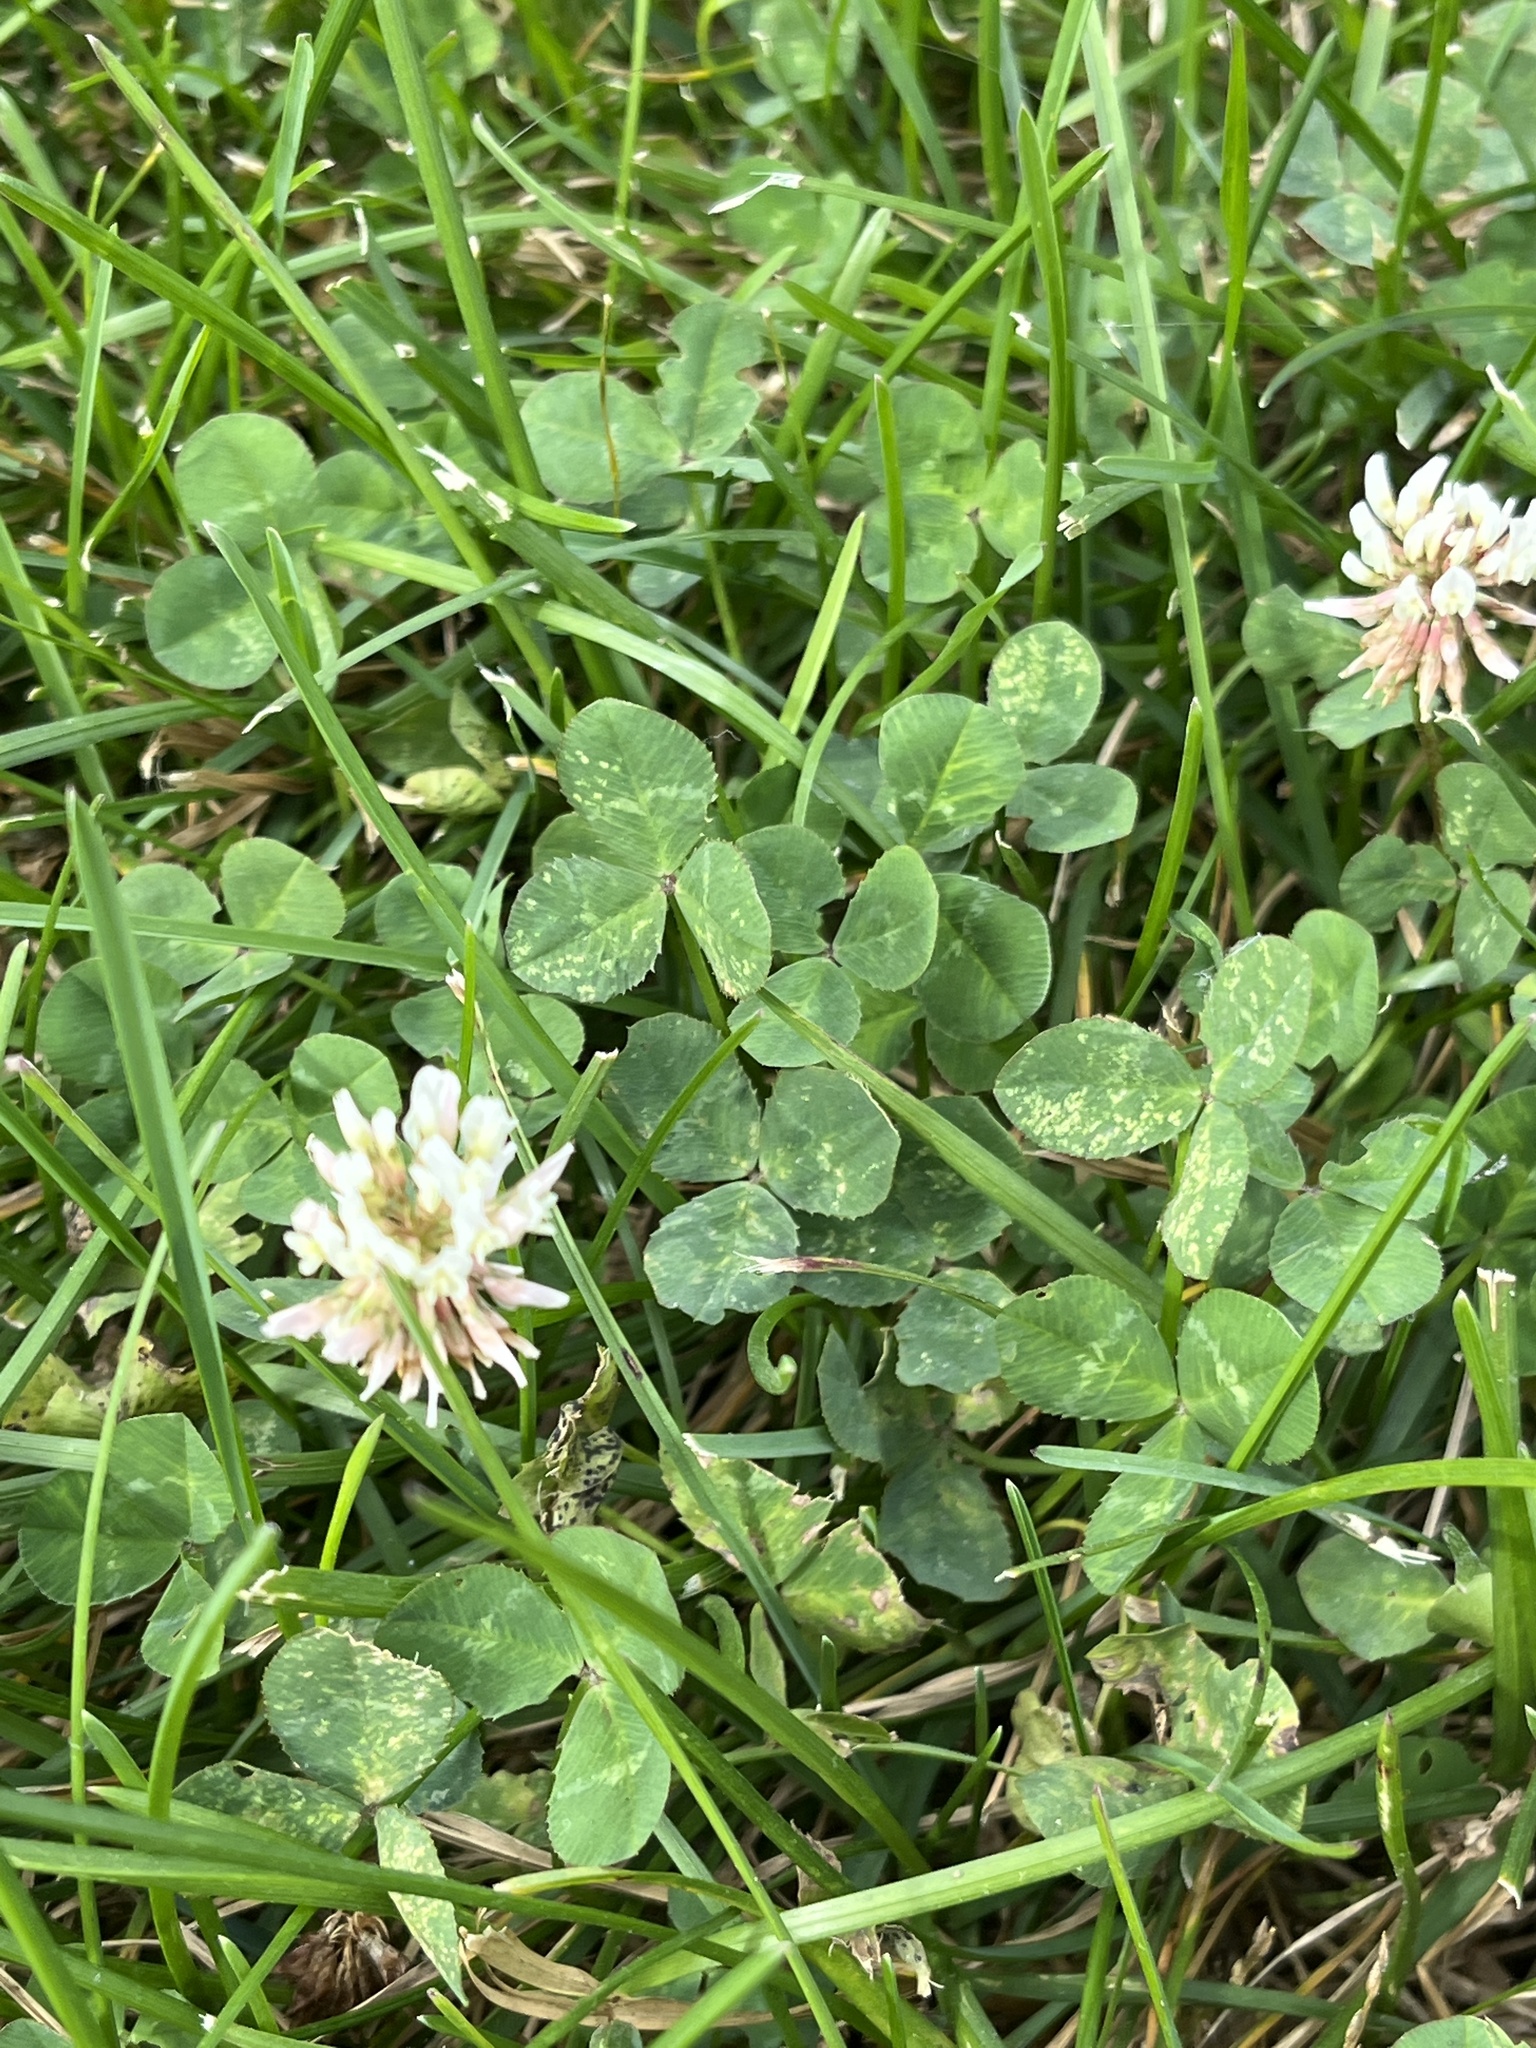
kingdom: Plantae
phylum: Tracheophyta
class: Magnoliopsida
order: Fabales
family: Fabaceae
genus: Trifolium
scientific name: Trifolium repens
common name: White clover
